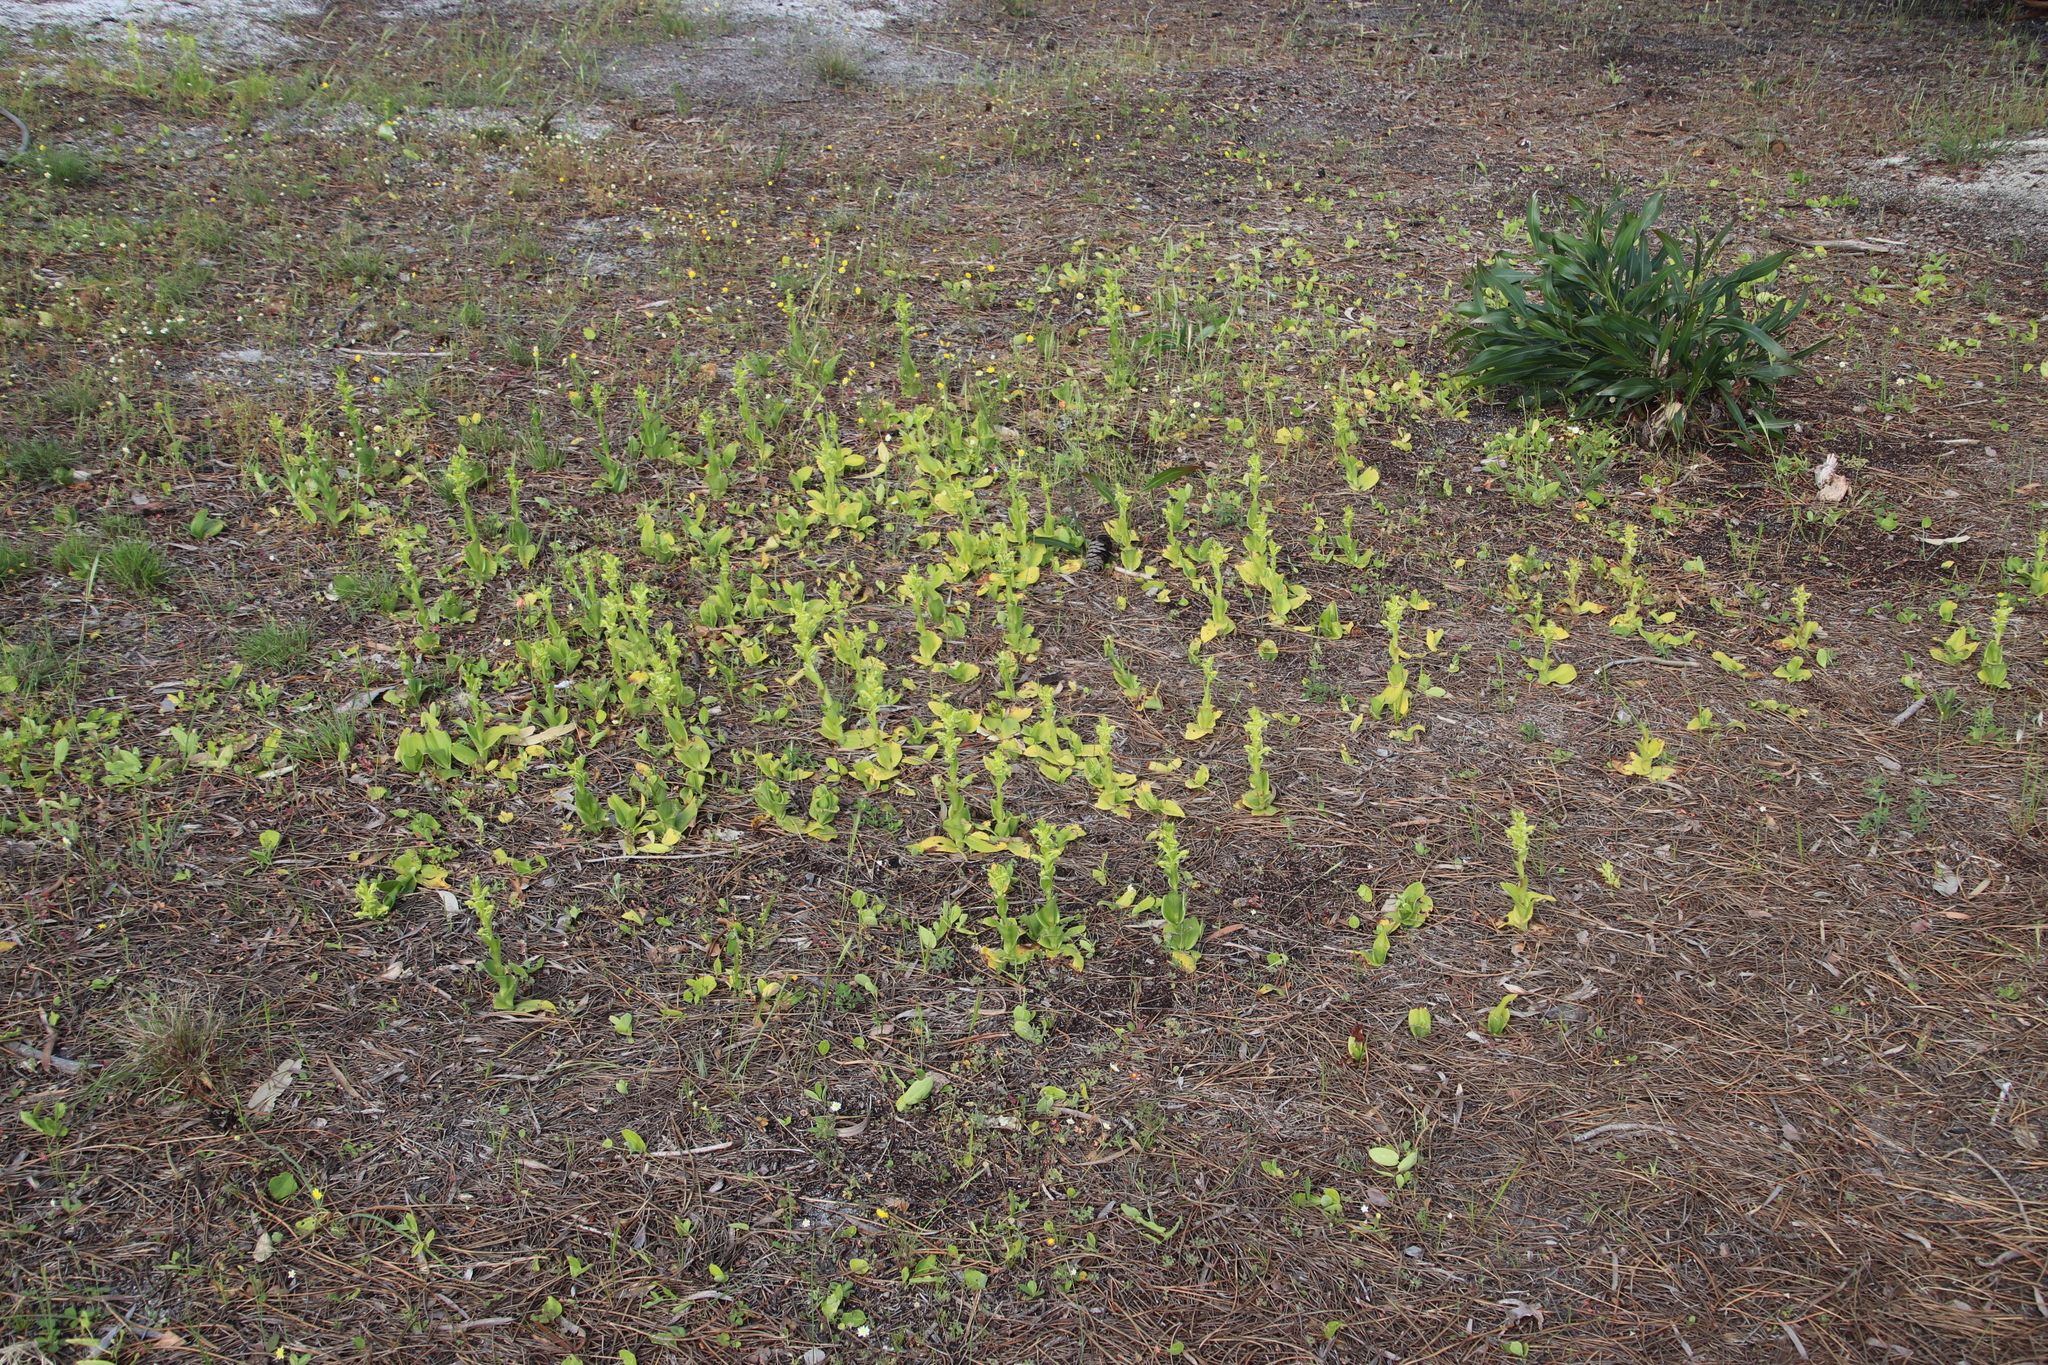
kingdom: Plantae
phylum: Tracheophyta
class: Liliopsida
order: Asparagales
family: Orchidaceae
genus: Satyrium
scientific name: Satyrium odorum
